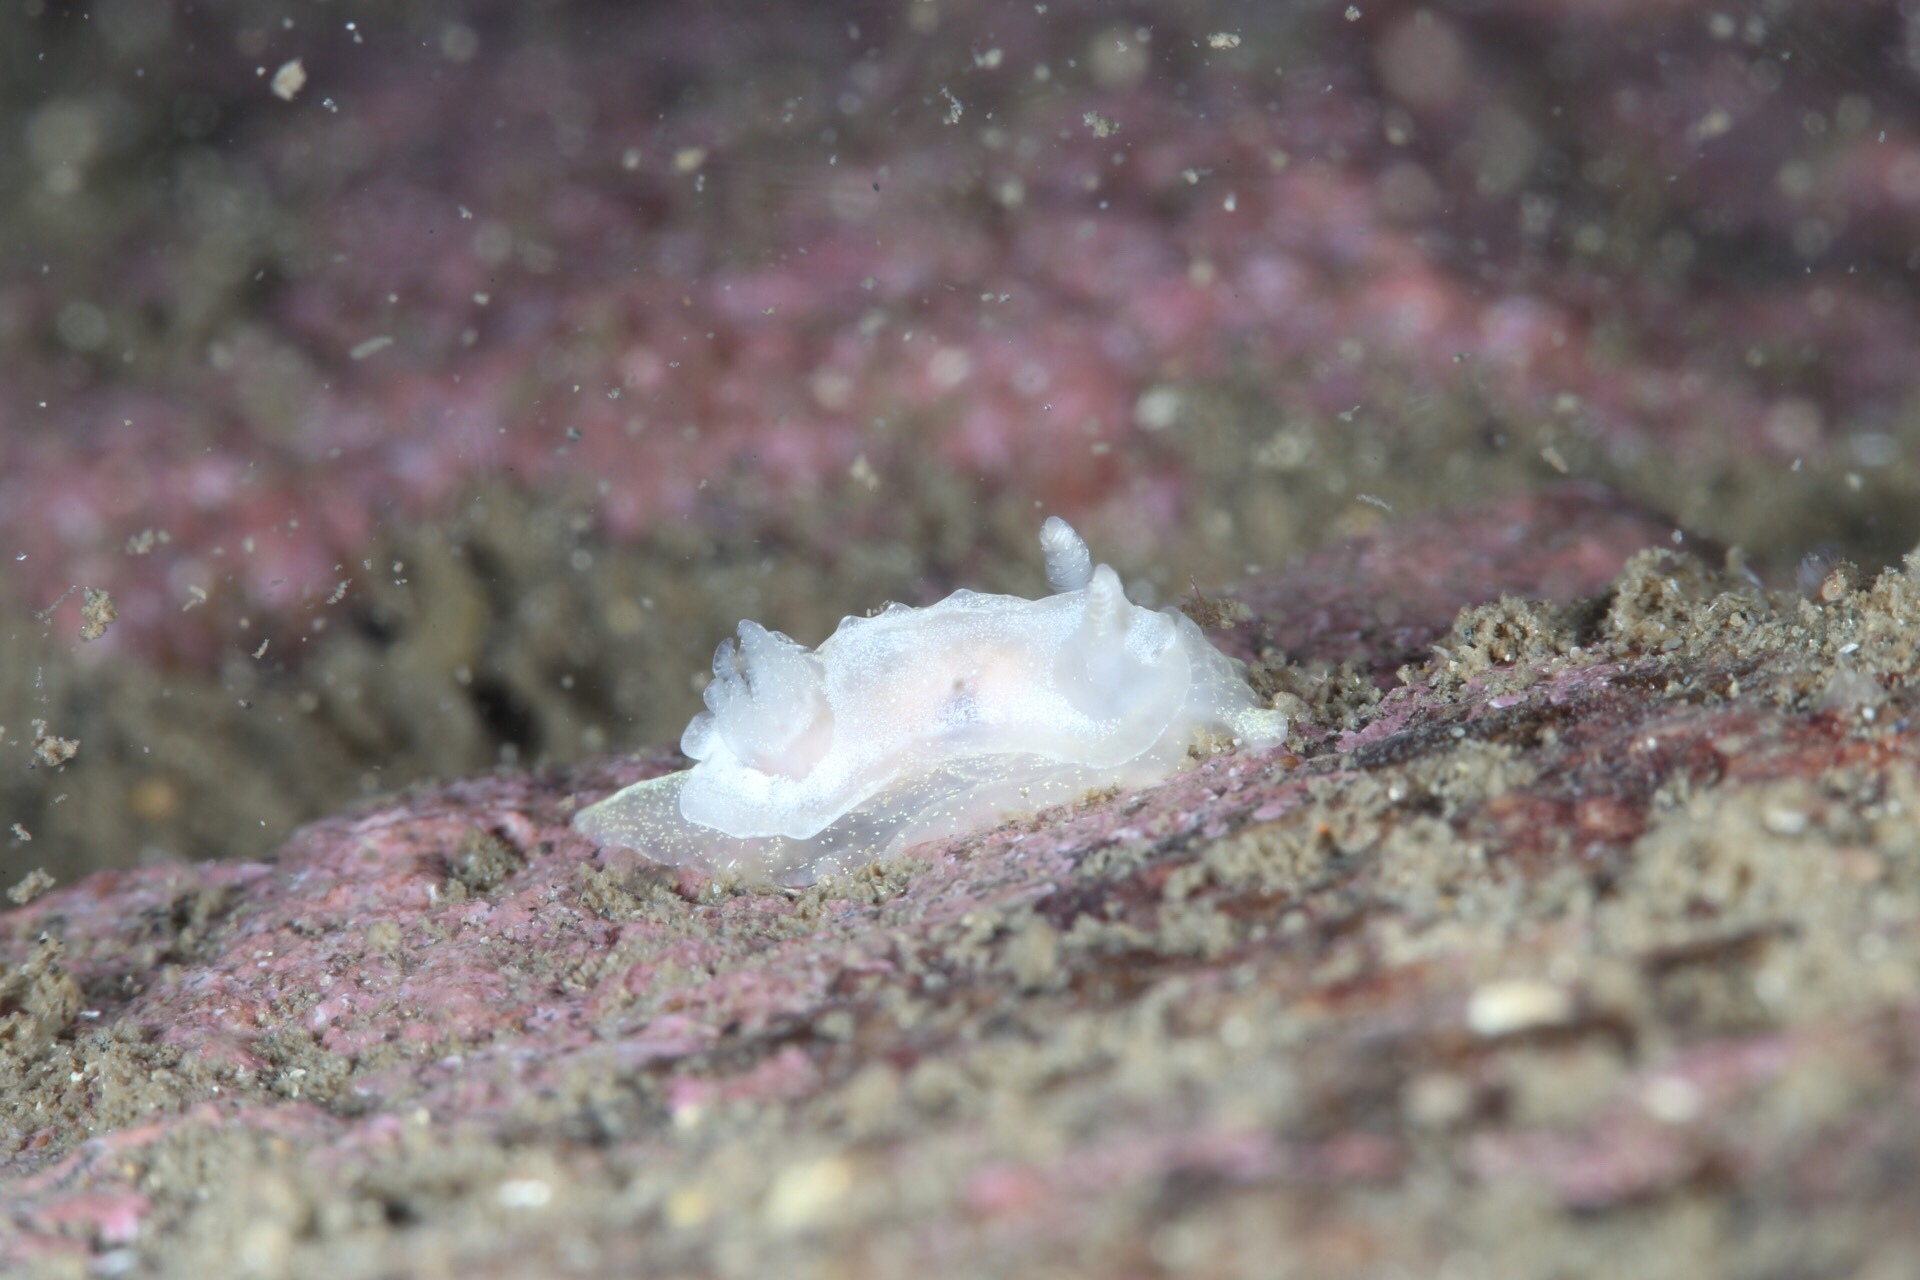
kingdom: Animalia
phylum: Mollusca
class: Gastropoda
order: Nudibranchia
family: Goniodorididae
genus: Okenia
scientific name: Okenia
